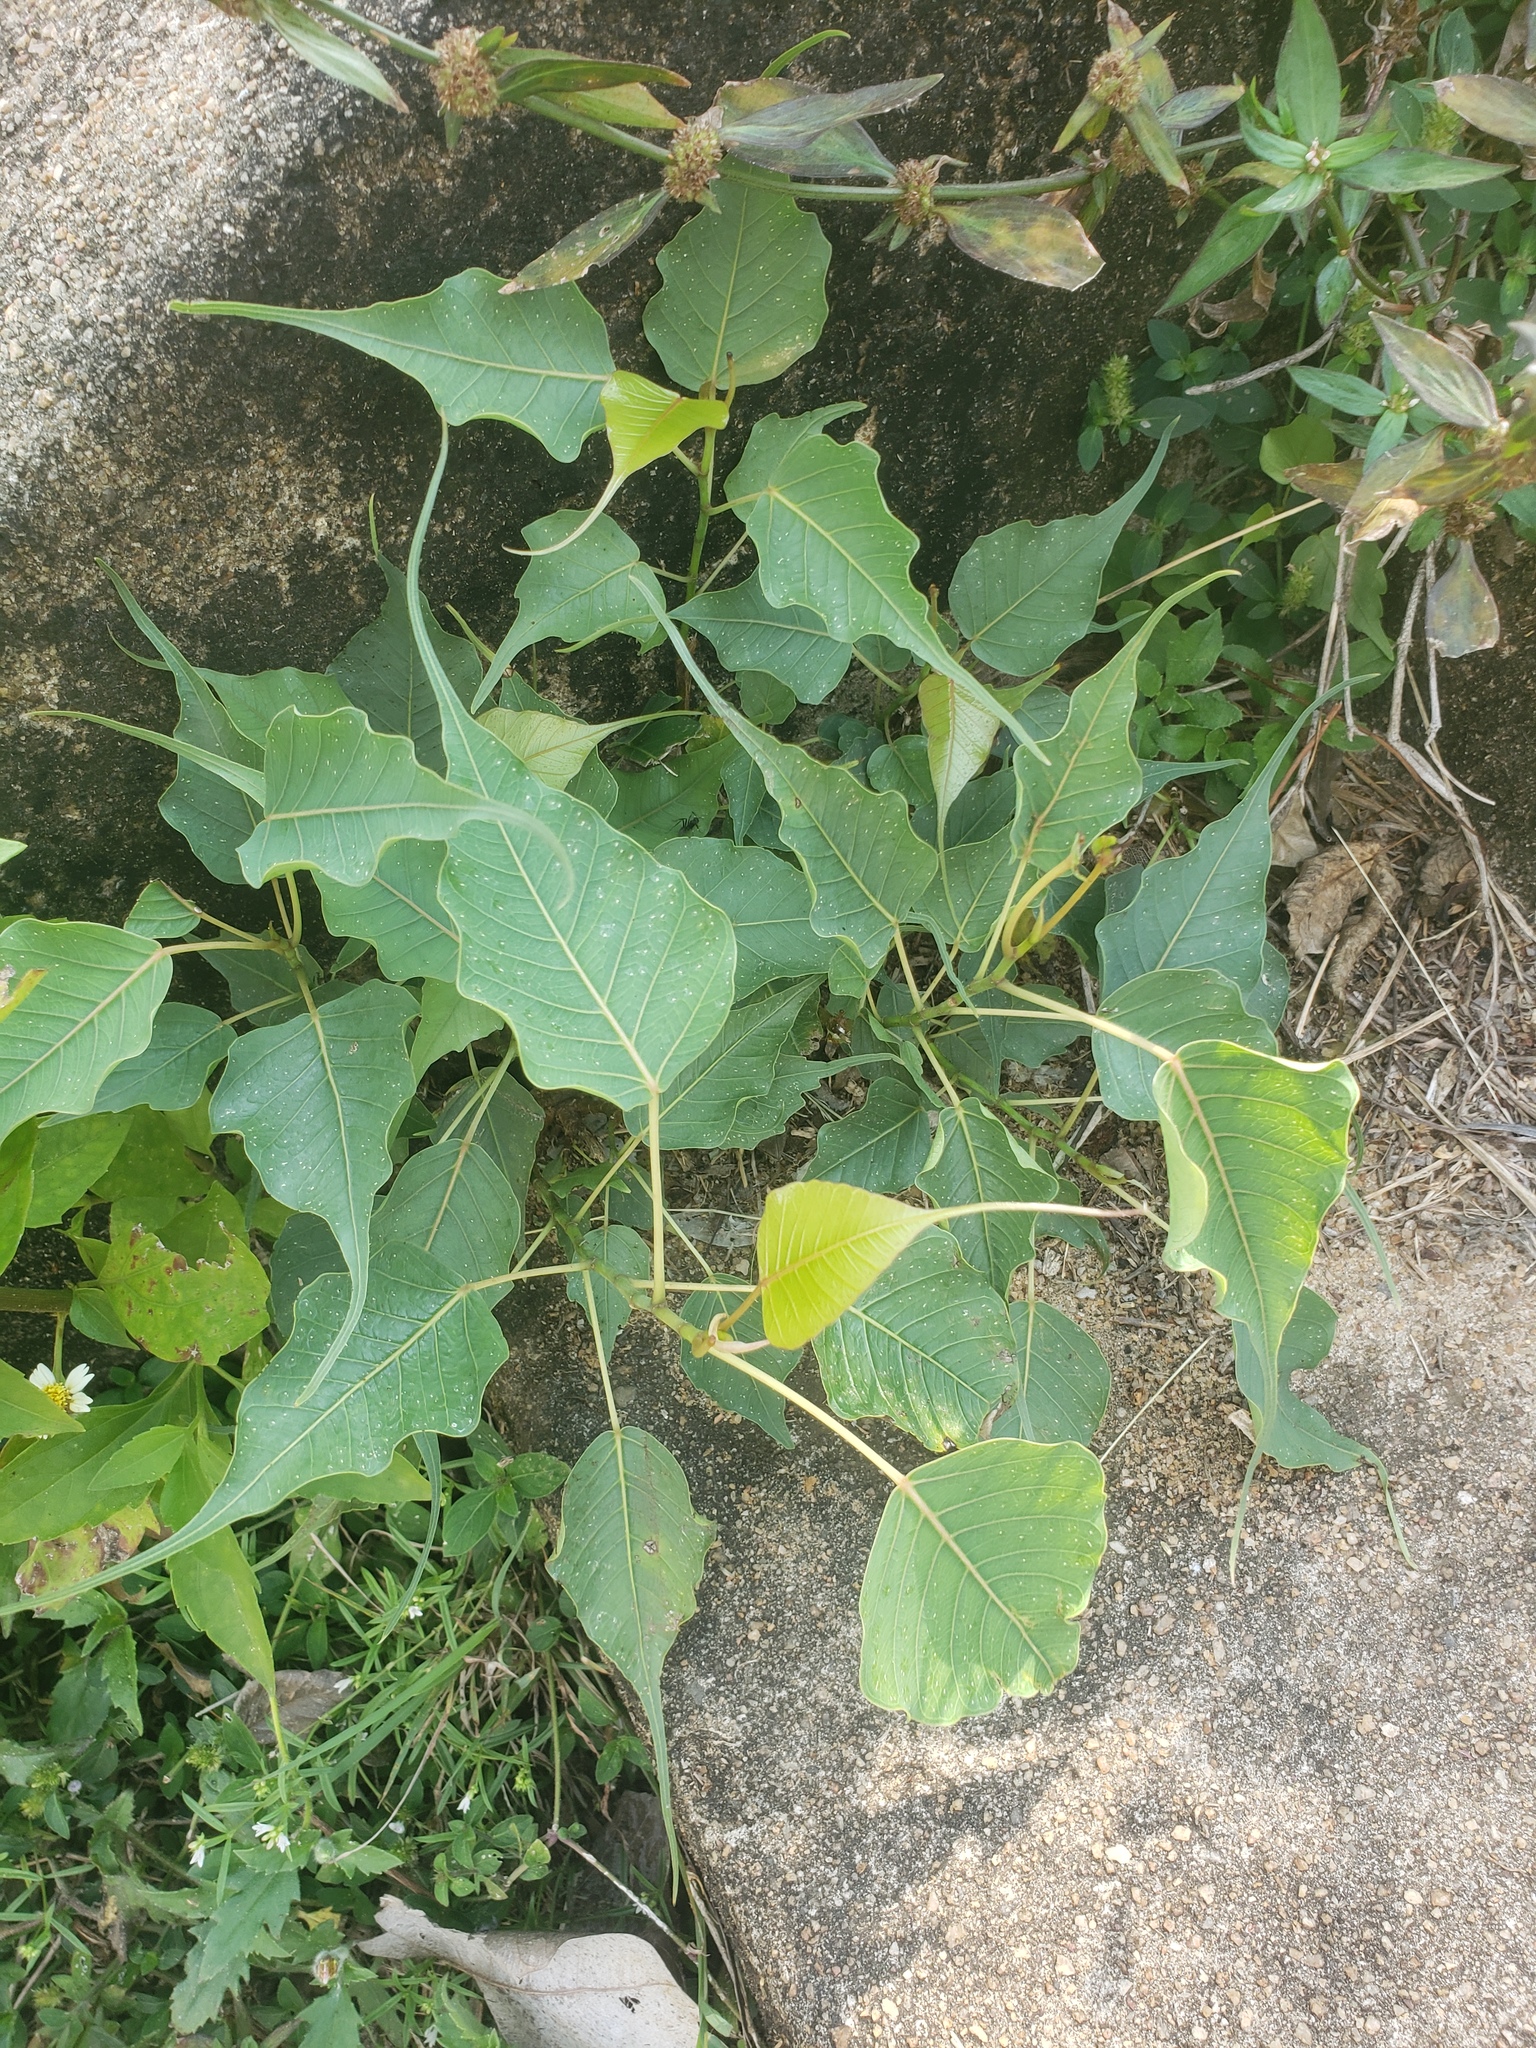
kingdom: Plantae
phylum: Tracheophyta
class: Magnoliopsida
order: Rosales
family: Moraceae
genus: Ficus
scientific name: Ficus religiosa
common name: Bodhi tree
